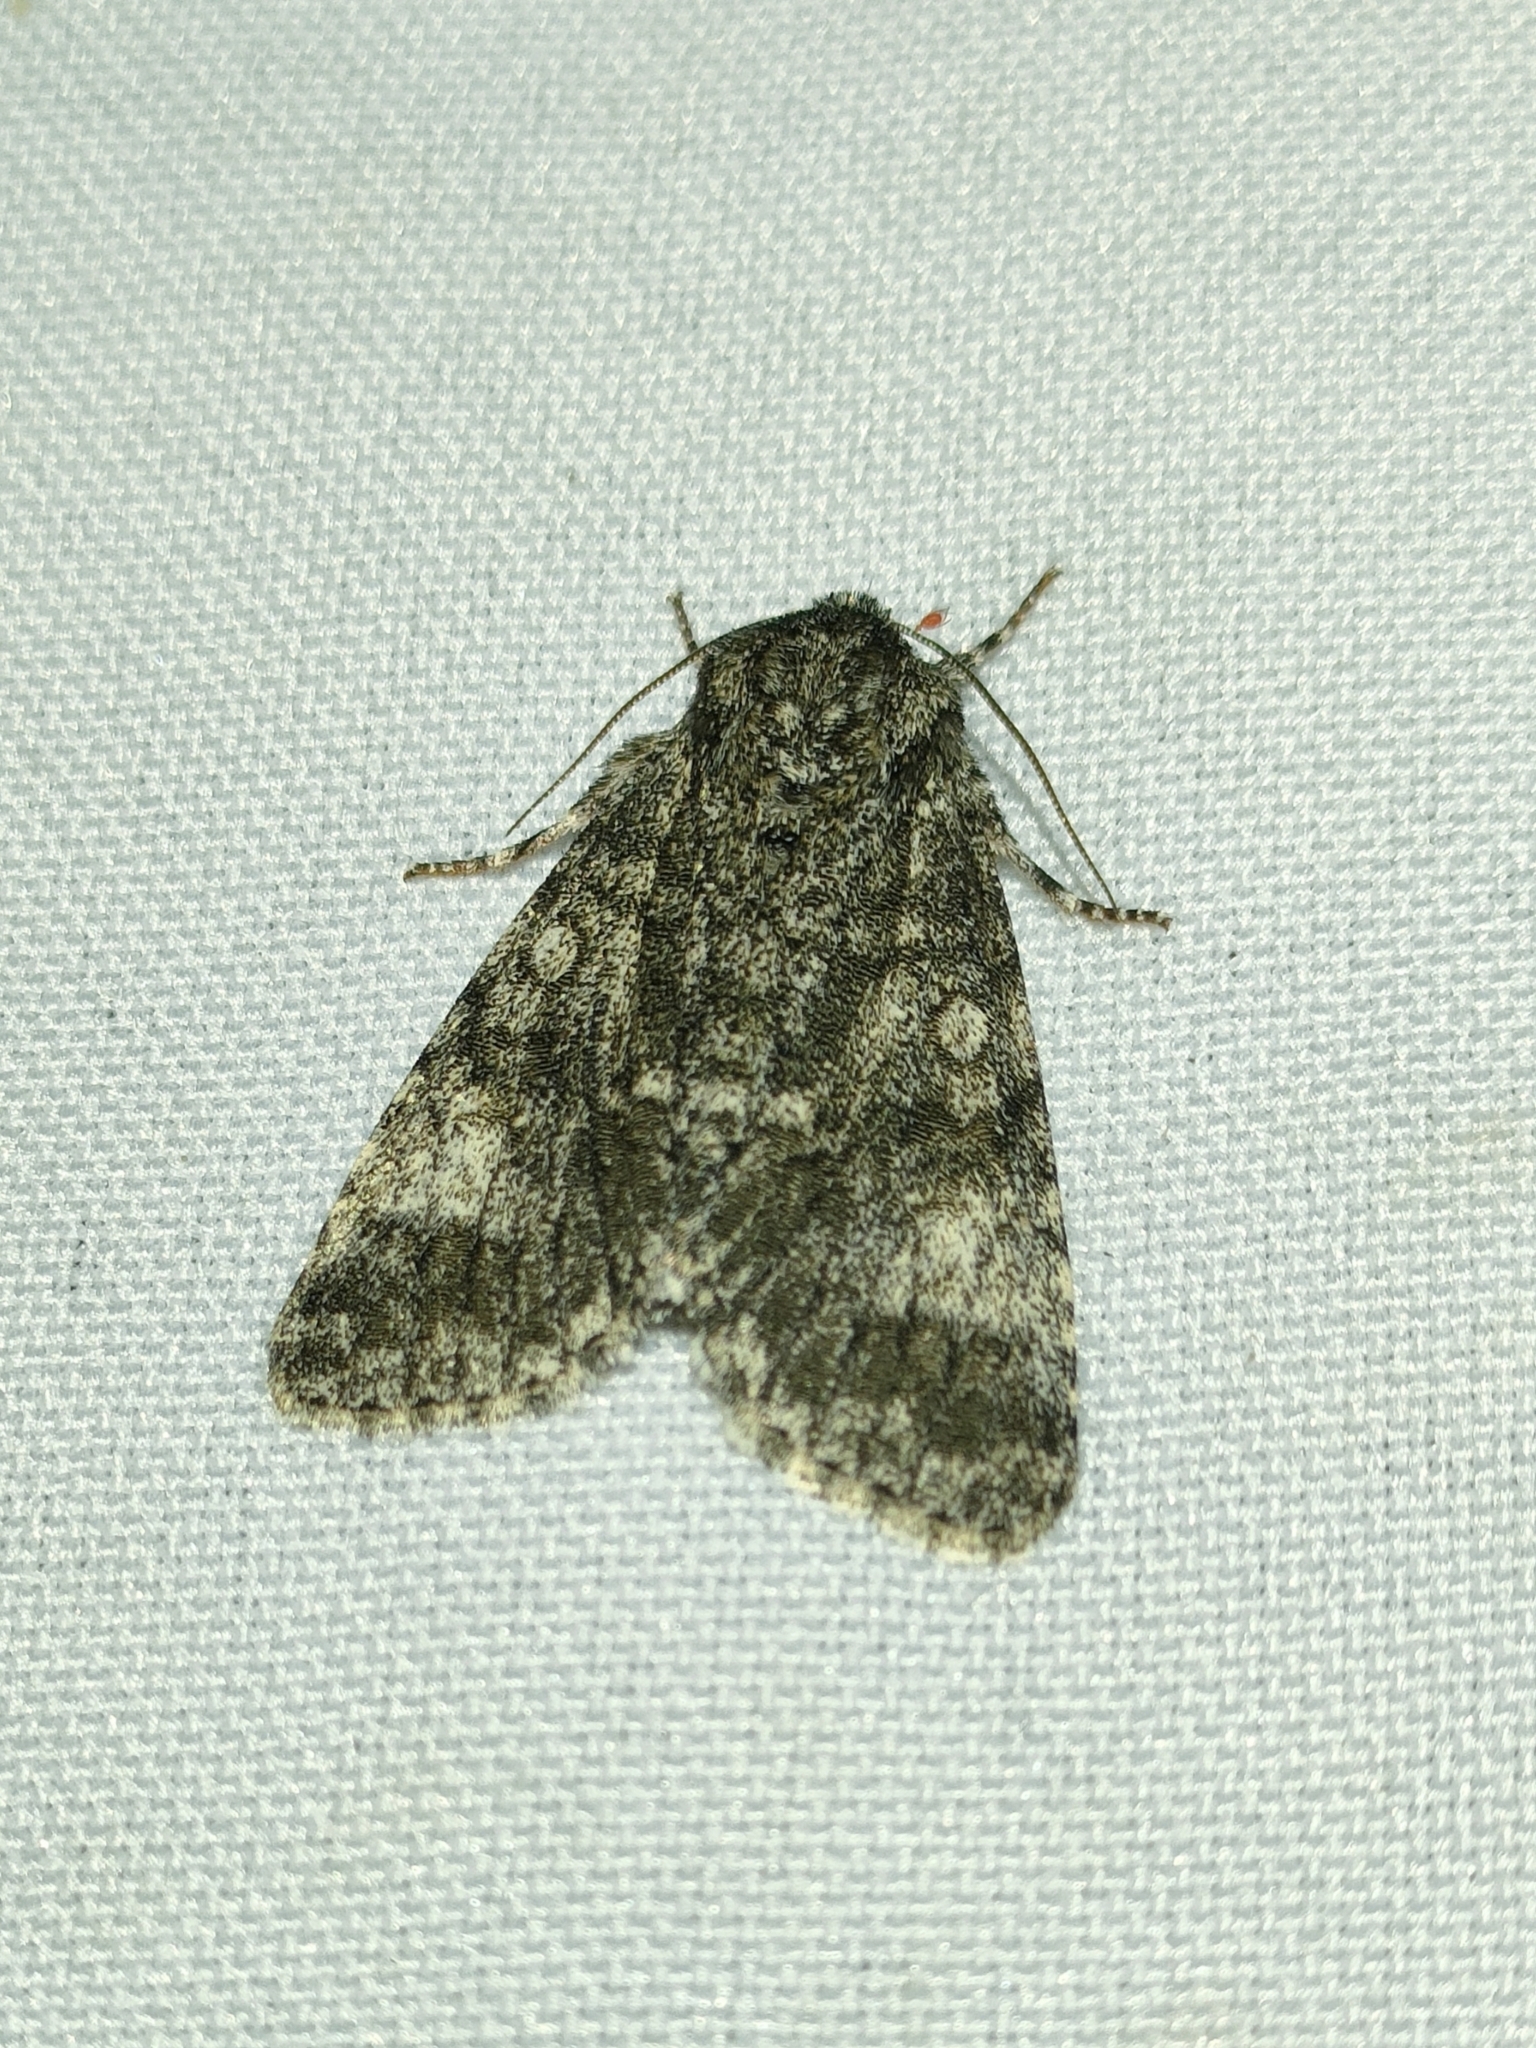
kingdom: Animalia
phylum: Arthropoda
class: Insecta
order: Lepidoptera
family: Noctuidae
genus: Acronicta
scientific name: Acronicta megacephala
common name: Poplar grey
